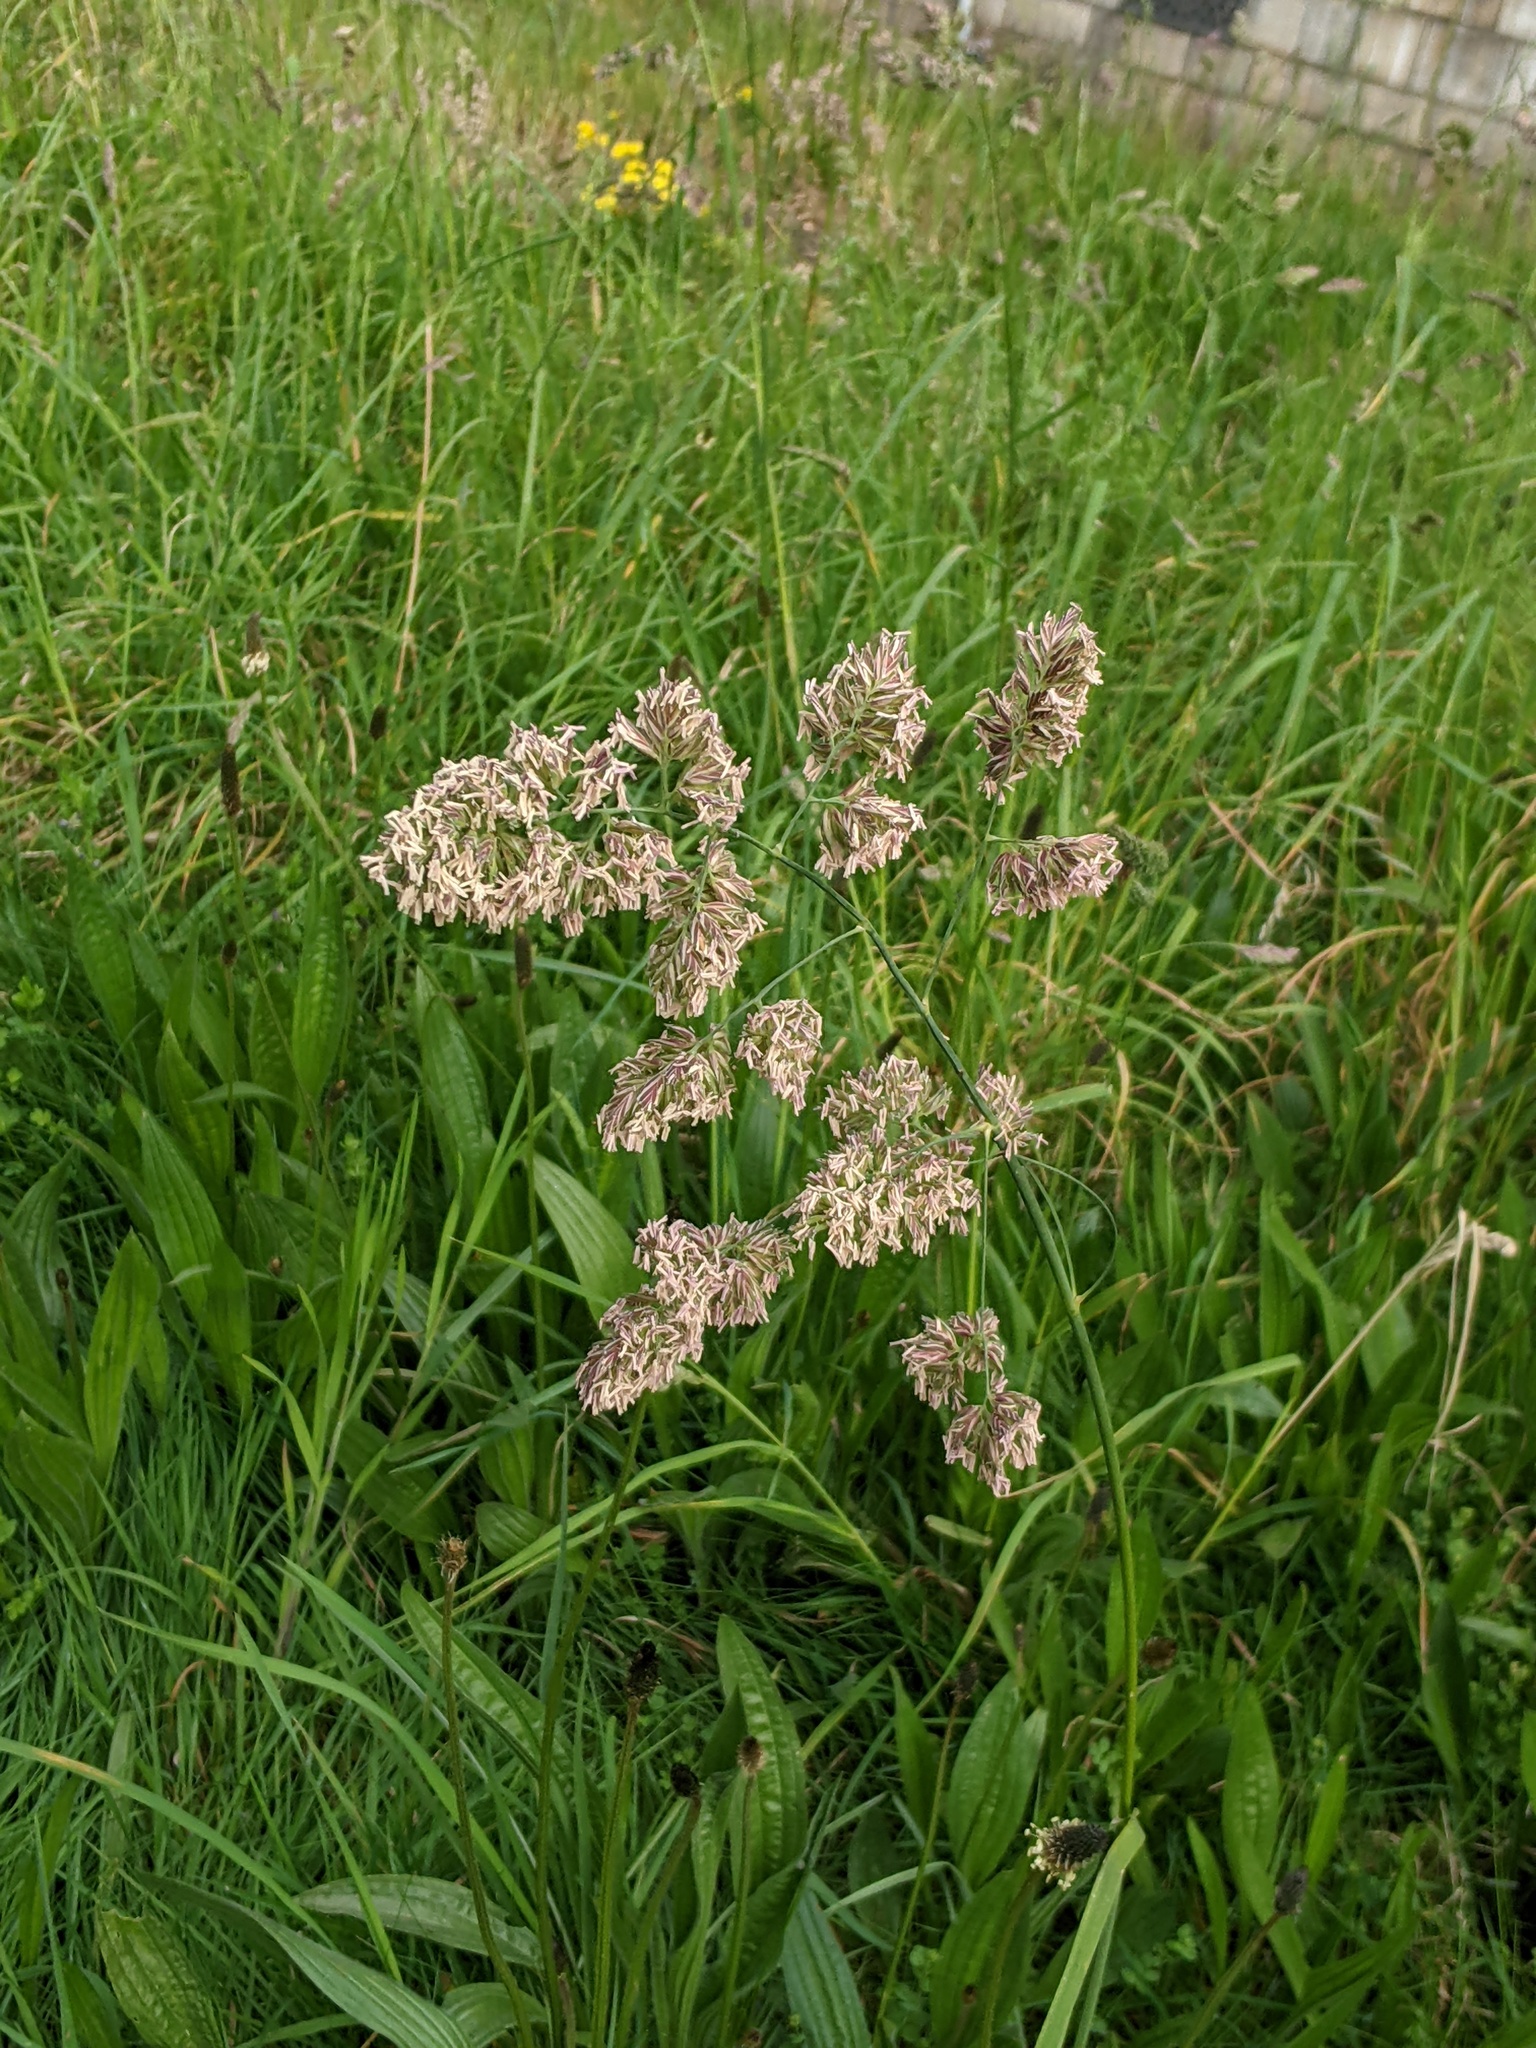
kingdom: Plantae
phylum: Tracheophyta
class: Liliopsida
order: Poales
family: Poaceae
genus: Dactylis
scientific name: Dactylis glomerata
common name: Orchardgrass
